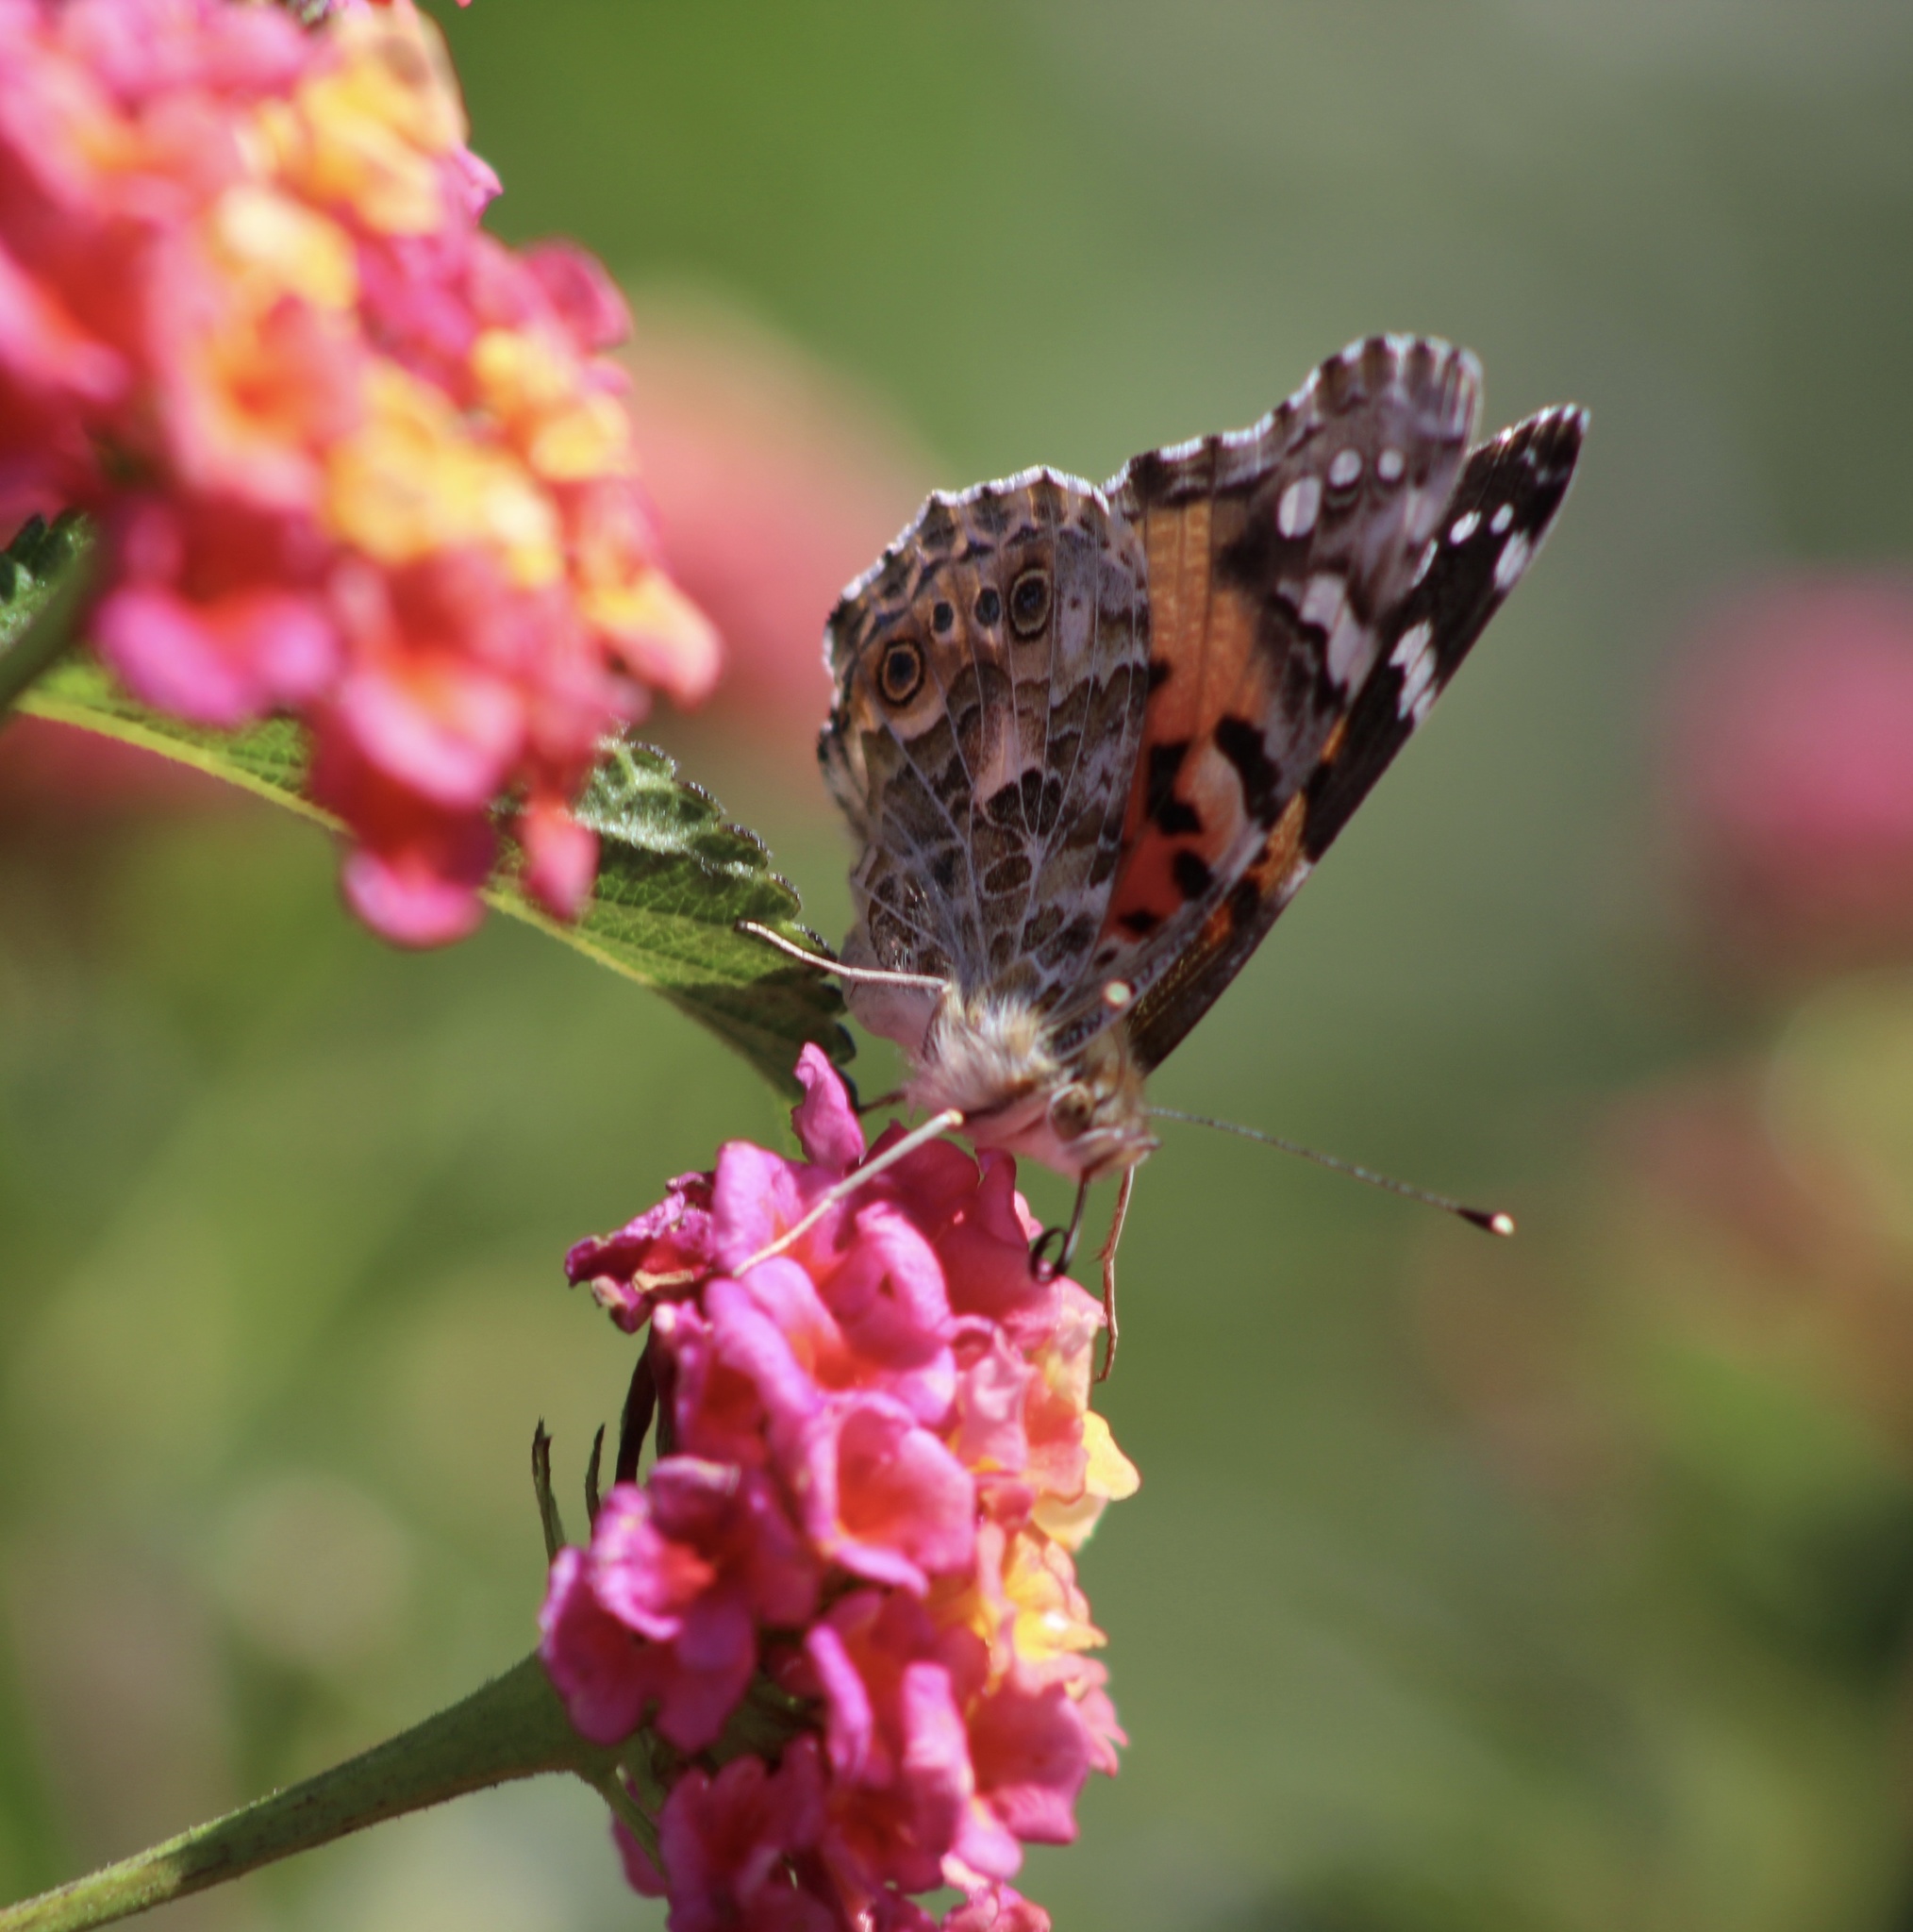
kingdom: Animalia
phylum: Arthropoda
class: Insecta
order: Lepidoptera
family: Nymphalidae
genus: Vanessa
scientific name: Vanessa cardui
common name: Painted lady
